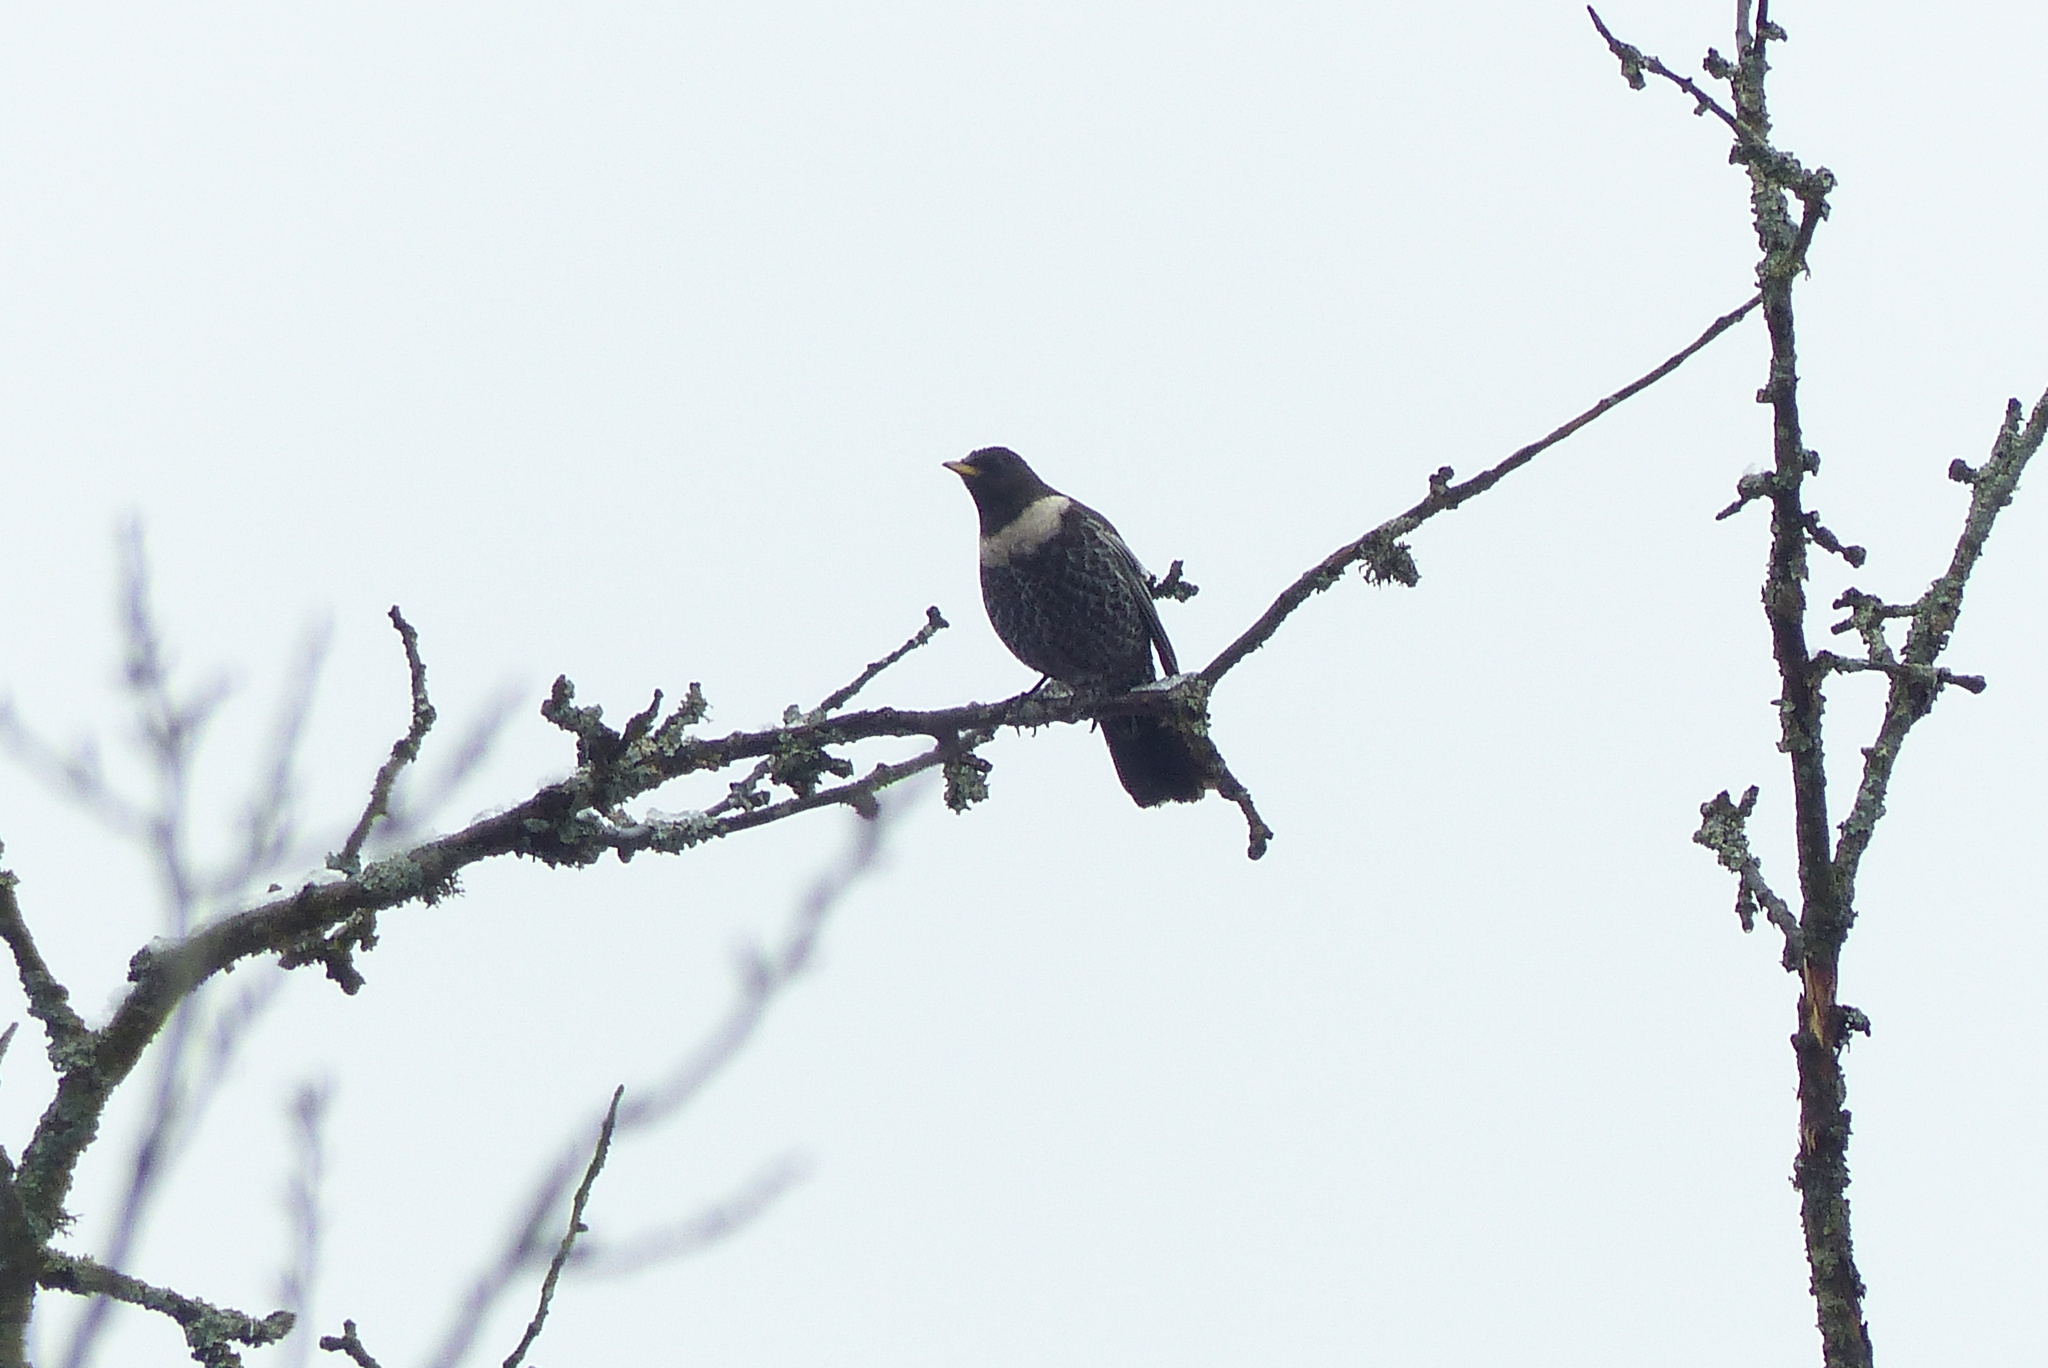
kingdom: Animalia
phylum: Chordata
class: Aves
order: Passeriformes
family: Turdidae
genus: Turdus
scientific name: Turdus torquatus
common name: Ring ouzel
